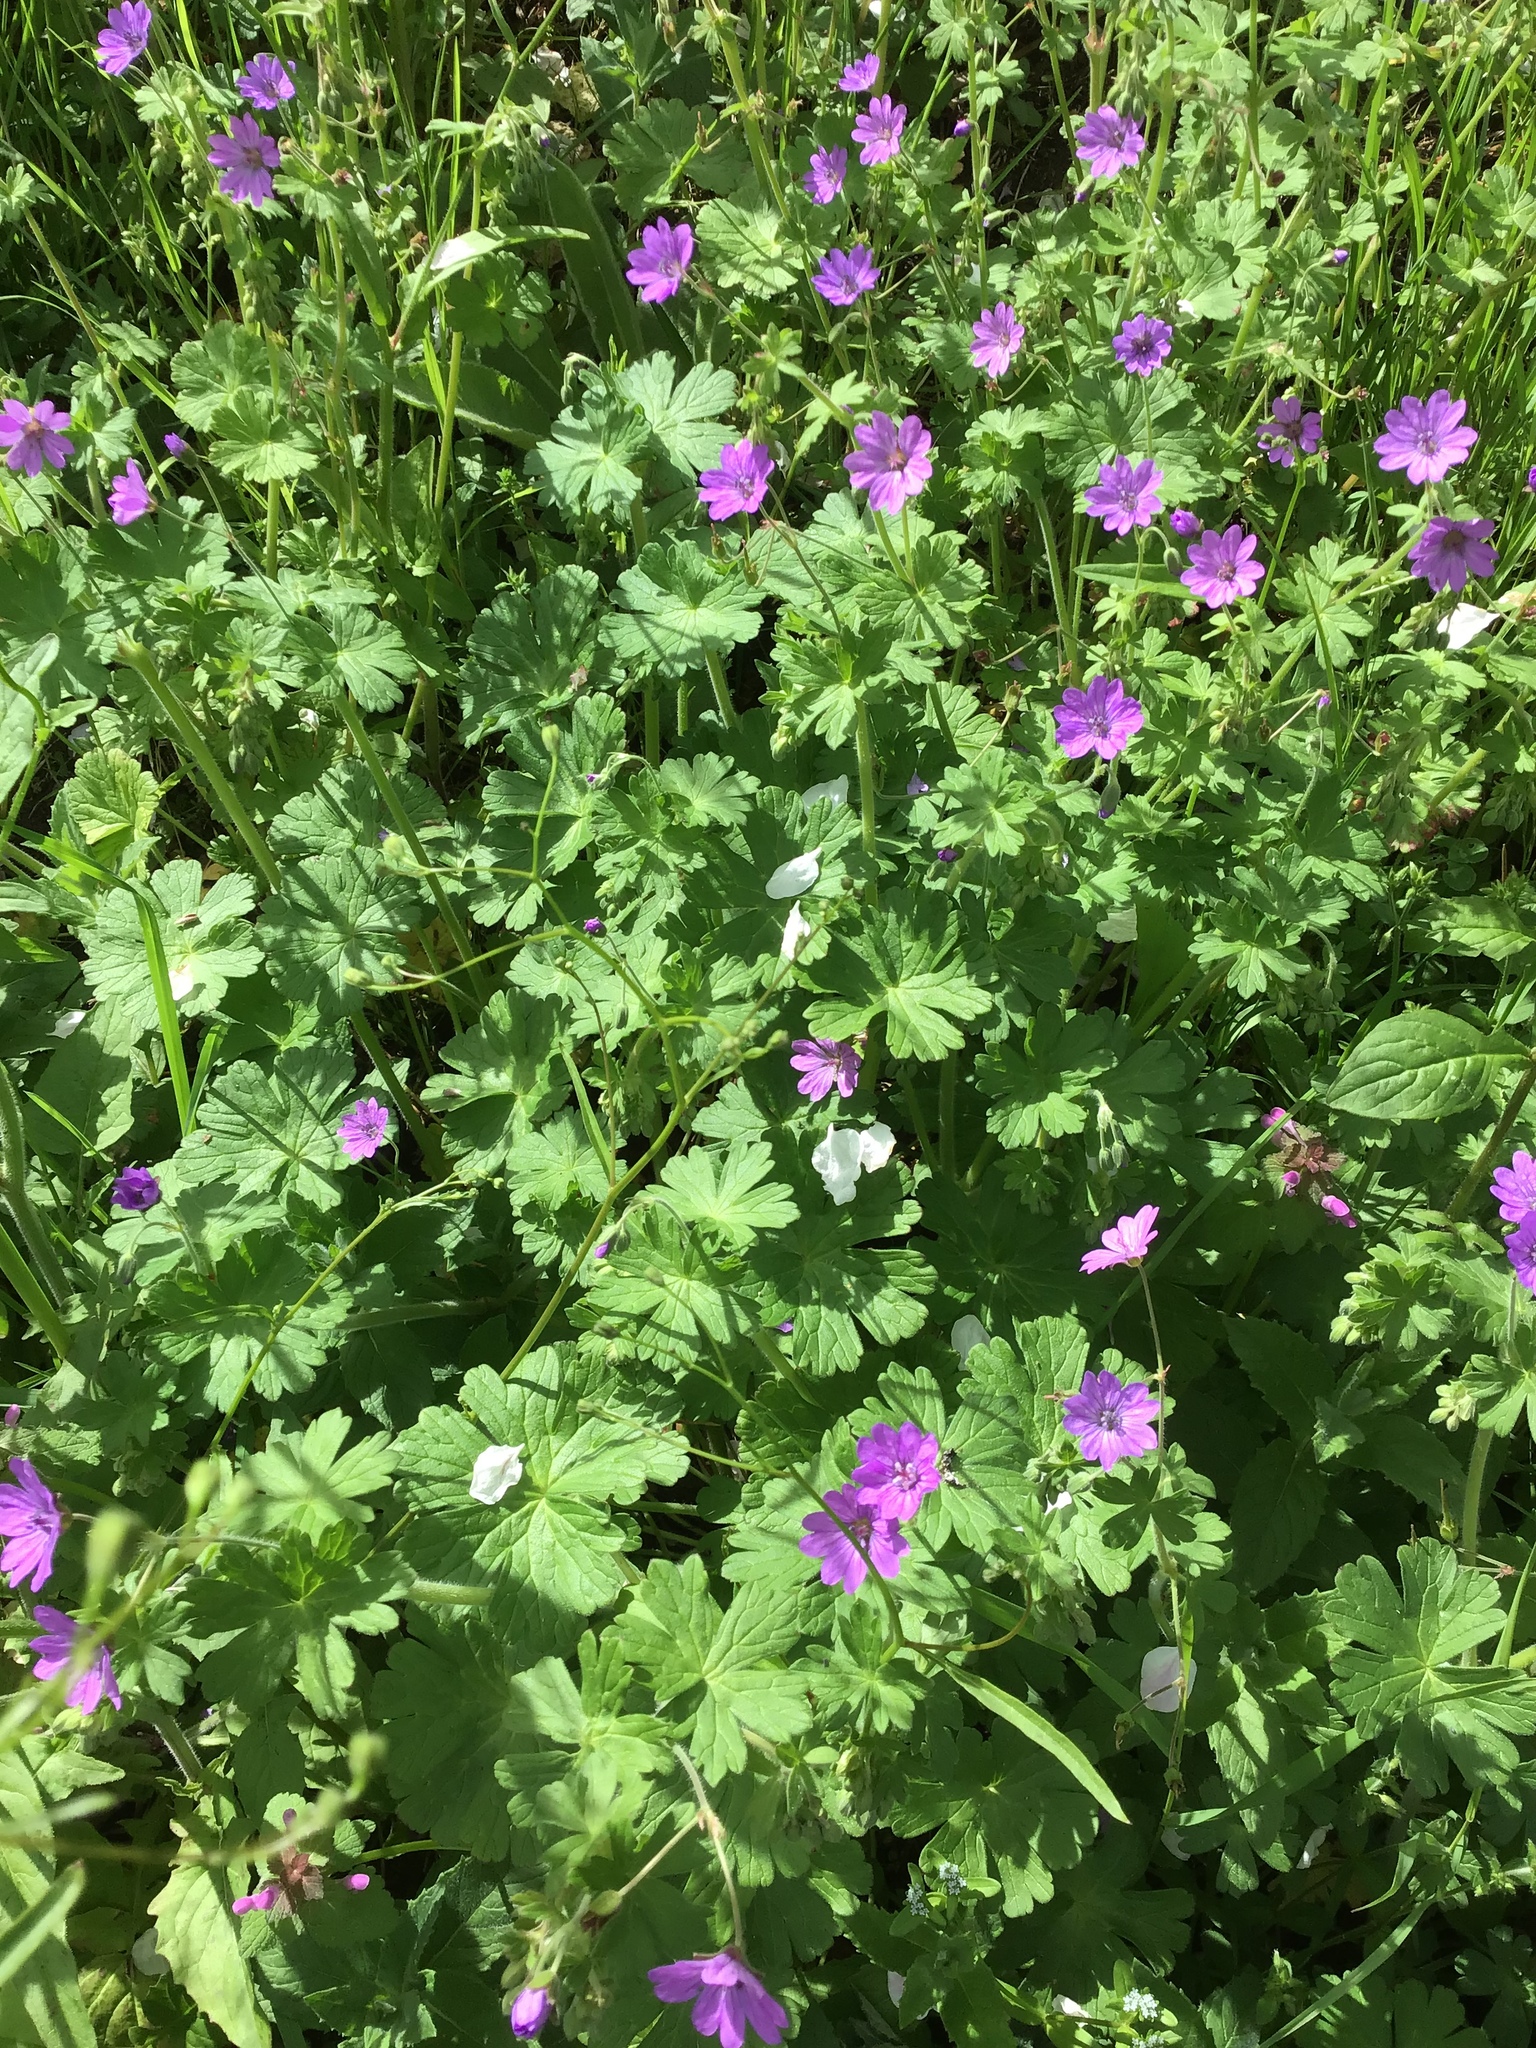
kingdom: Plantae
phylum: Tracheophyta
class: Magnoliopsida
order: Geraniales
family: Geraniaceae
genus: Geranium
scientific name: Geranium molle
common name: Dove's-foot crane's-bill
